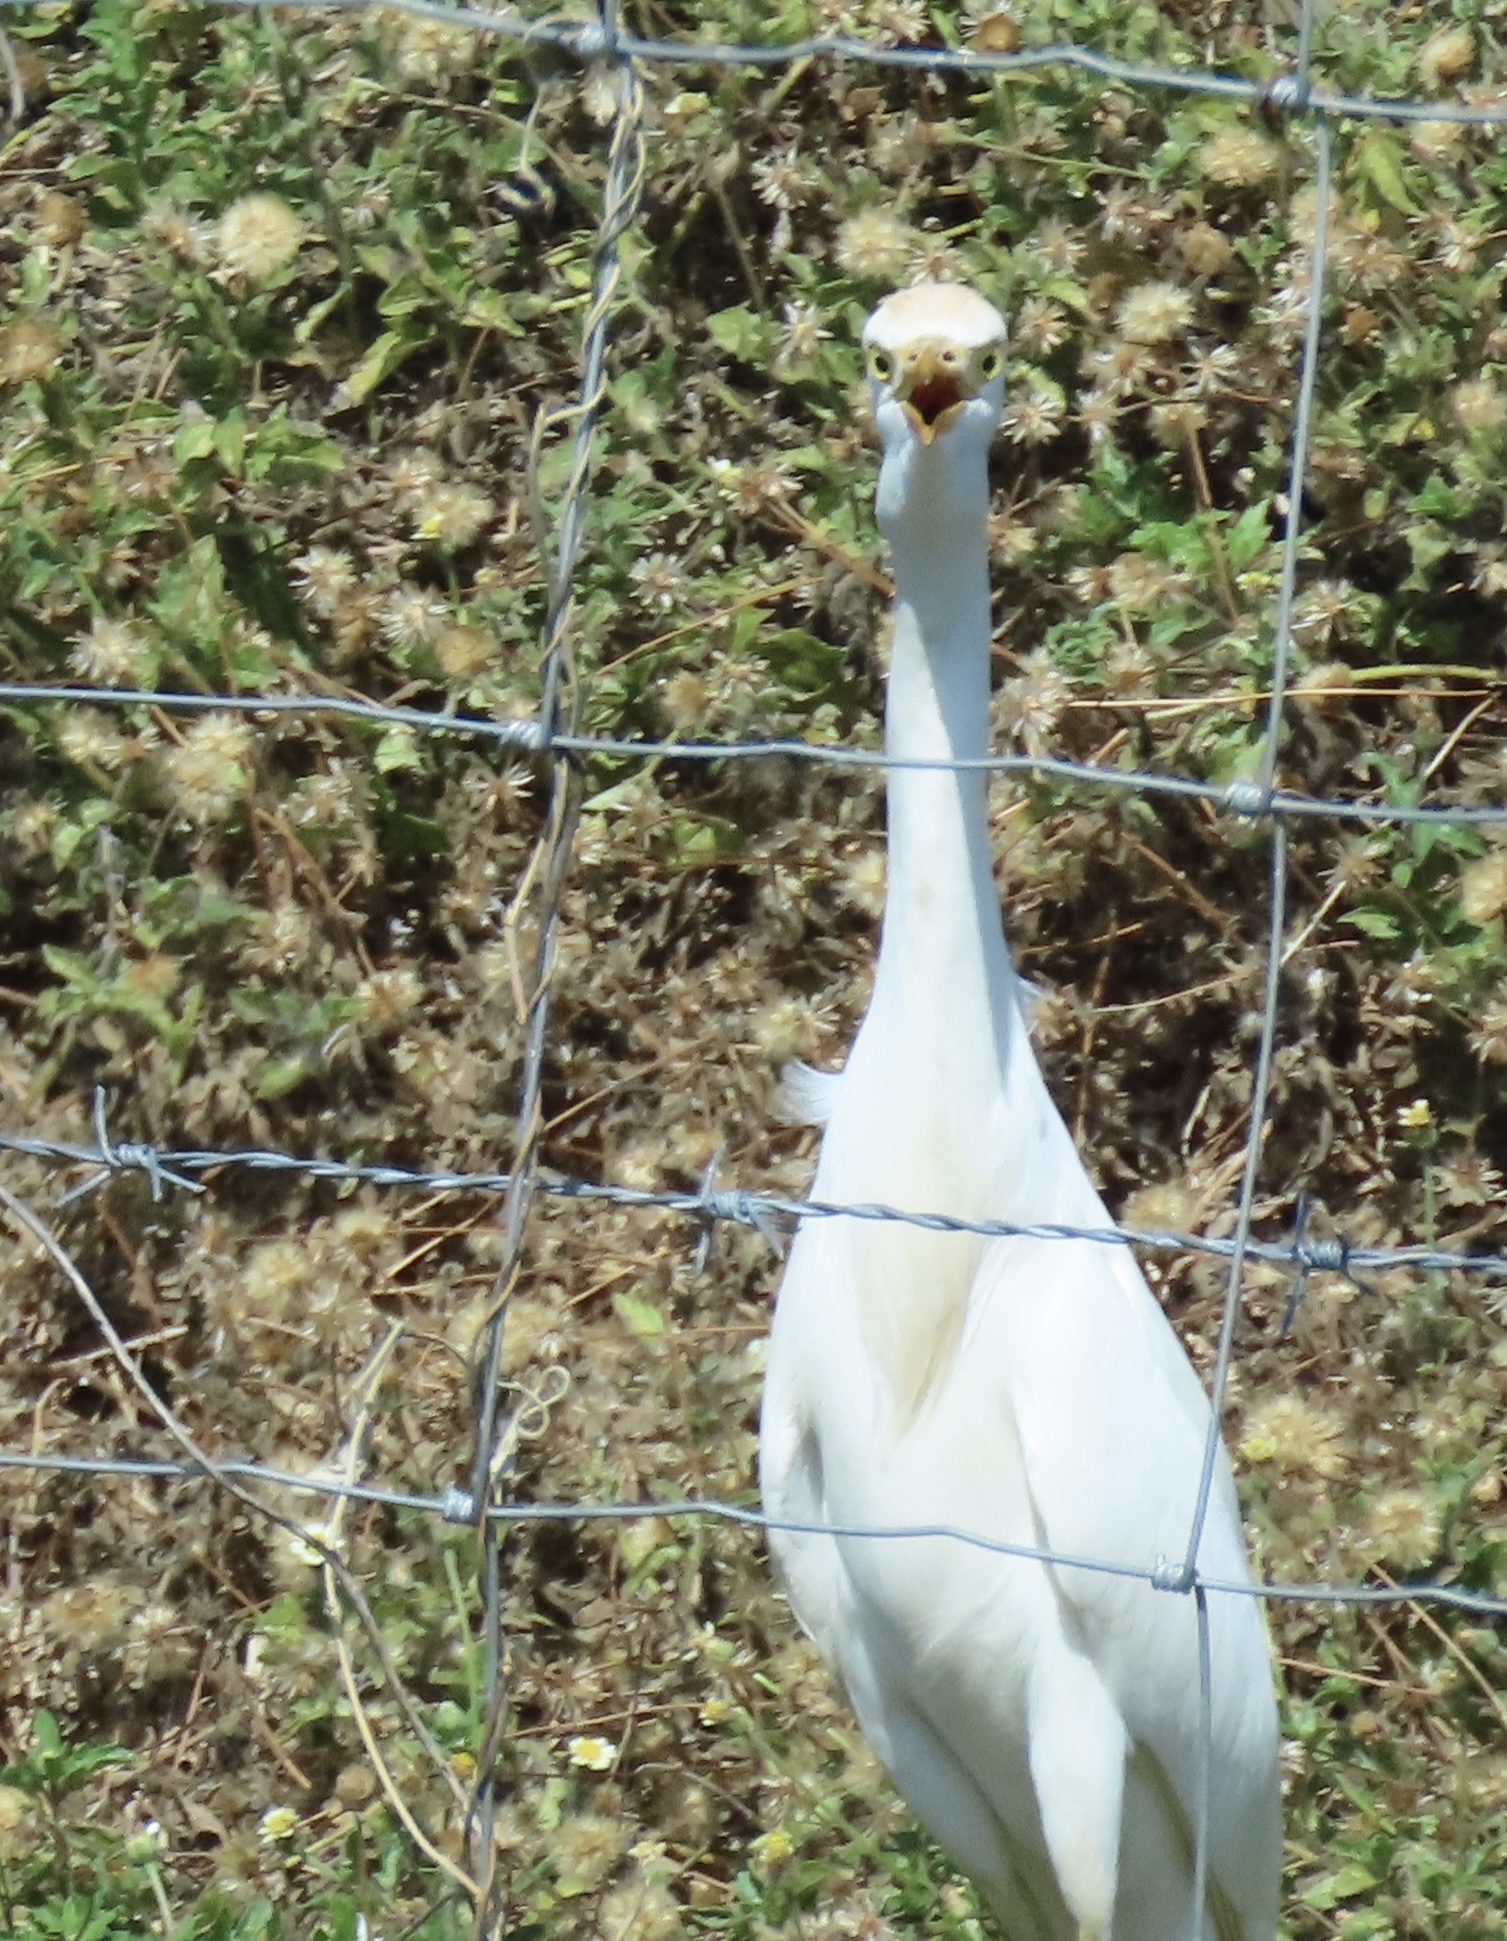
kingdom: Animalia
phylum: Chordata
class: Aves
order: Pelecaniformes
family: Ardeidae
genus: Bubulcus
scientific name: Bubulcus ibis
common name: Cattle egret
